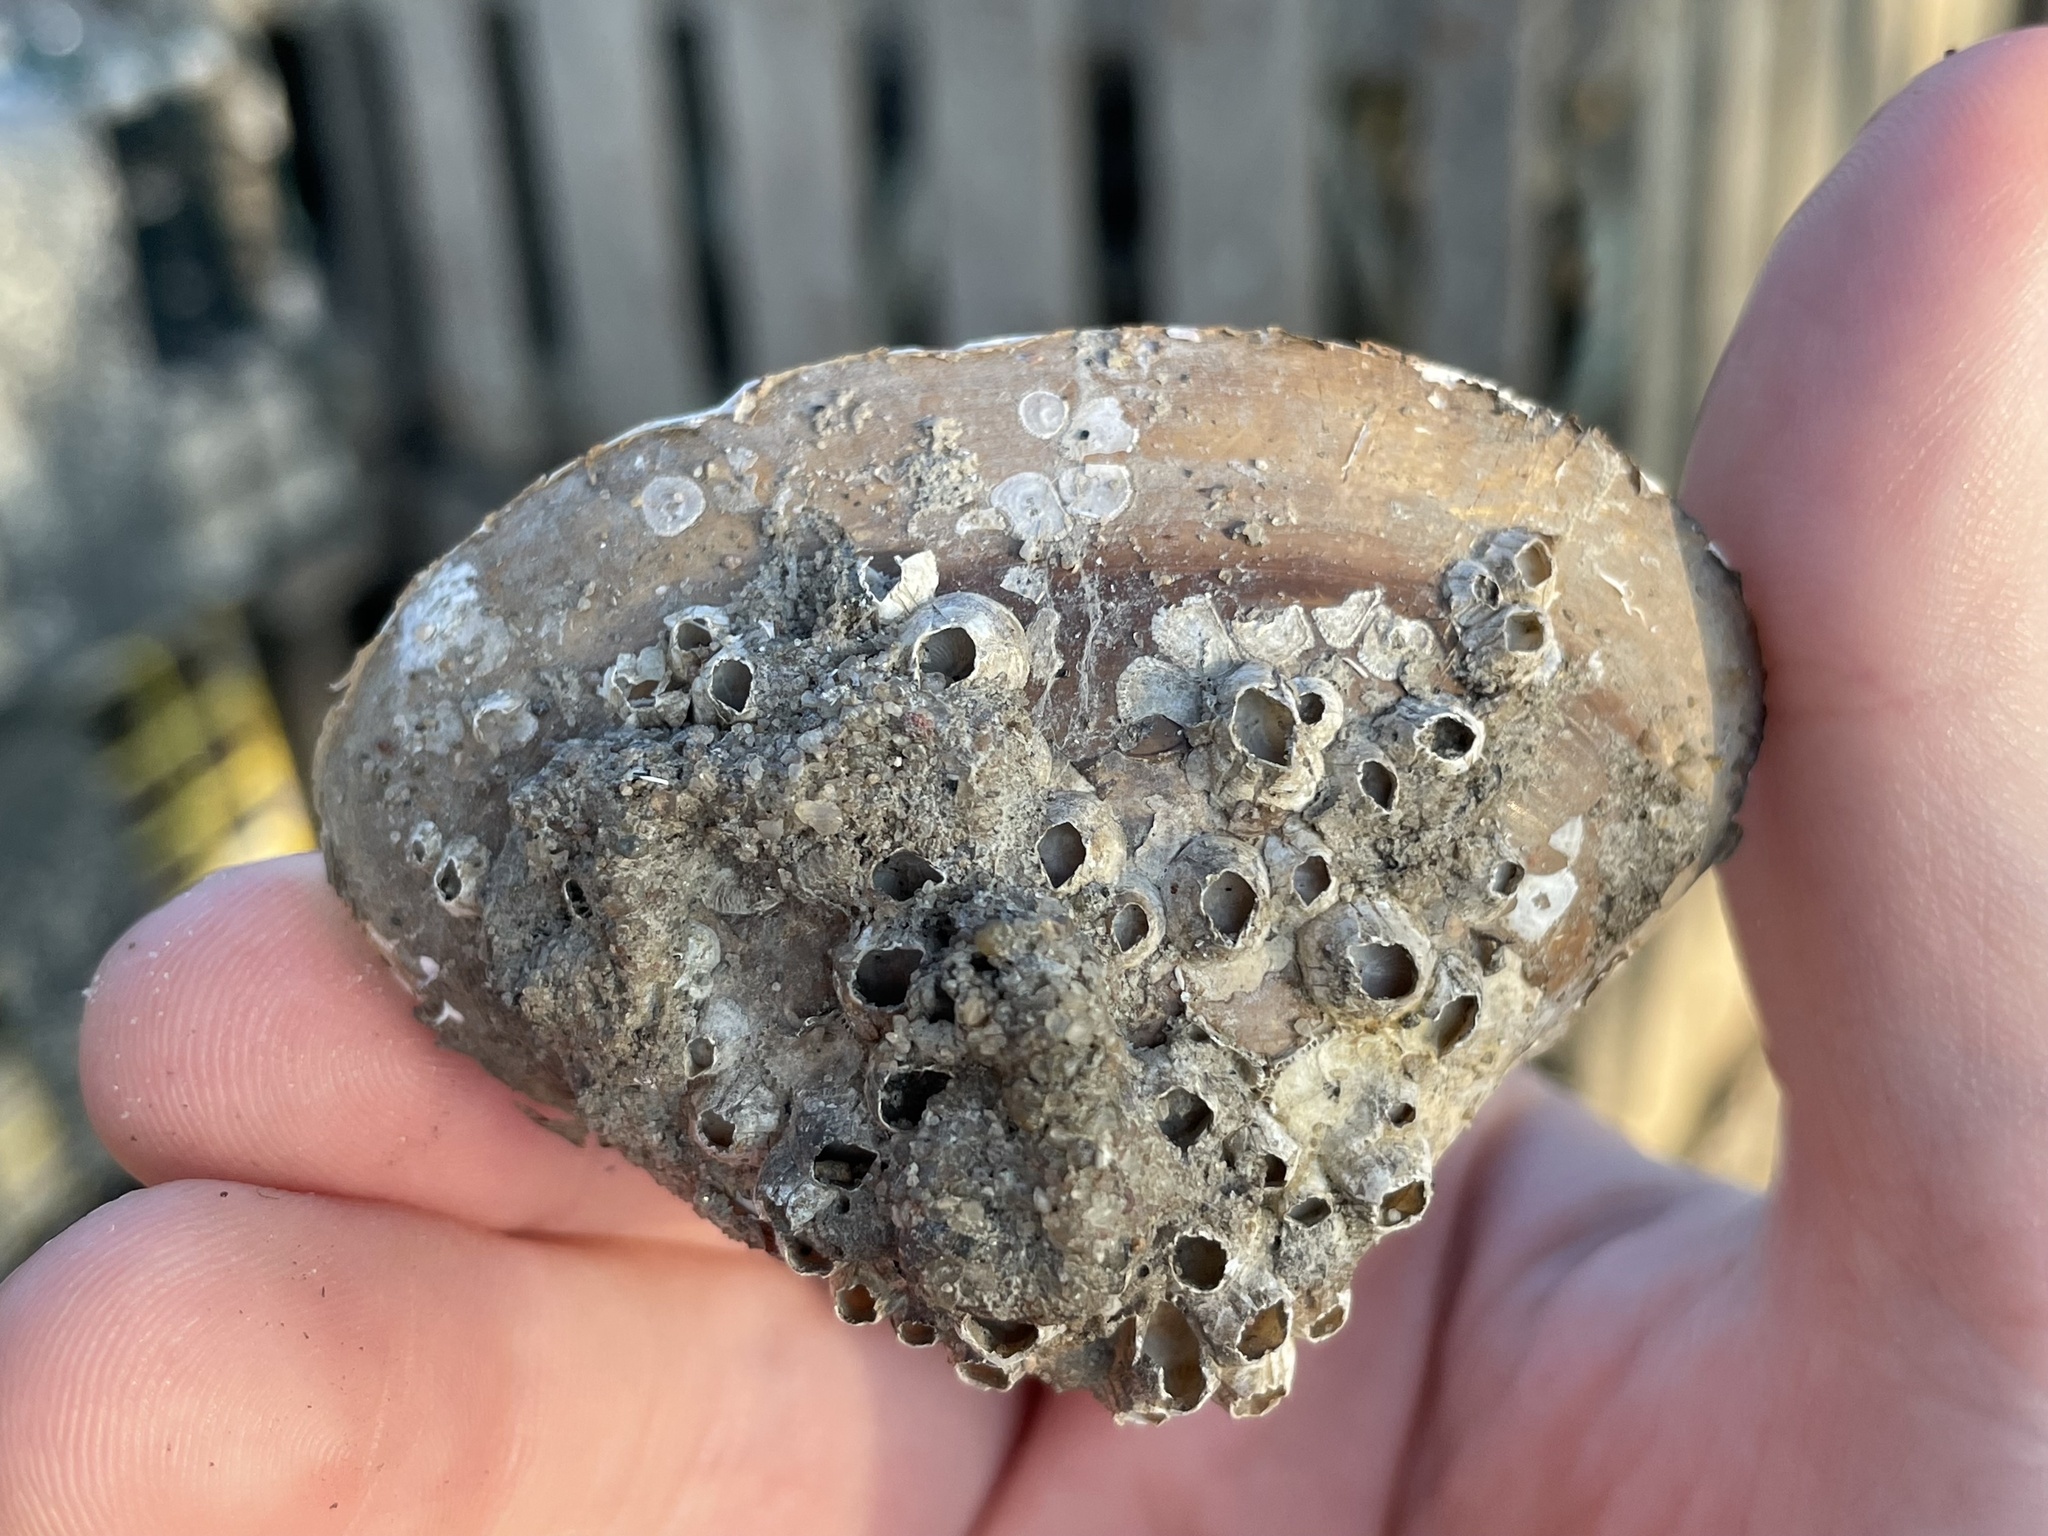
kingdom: Animalia
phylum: Mollusca
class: Bivalvia
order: Venerida
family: Mactridae
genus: Spisula
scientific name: Spisula solidissima
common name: Atlantic surf clam
